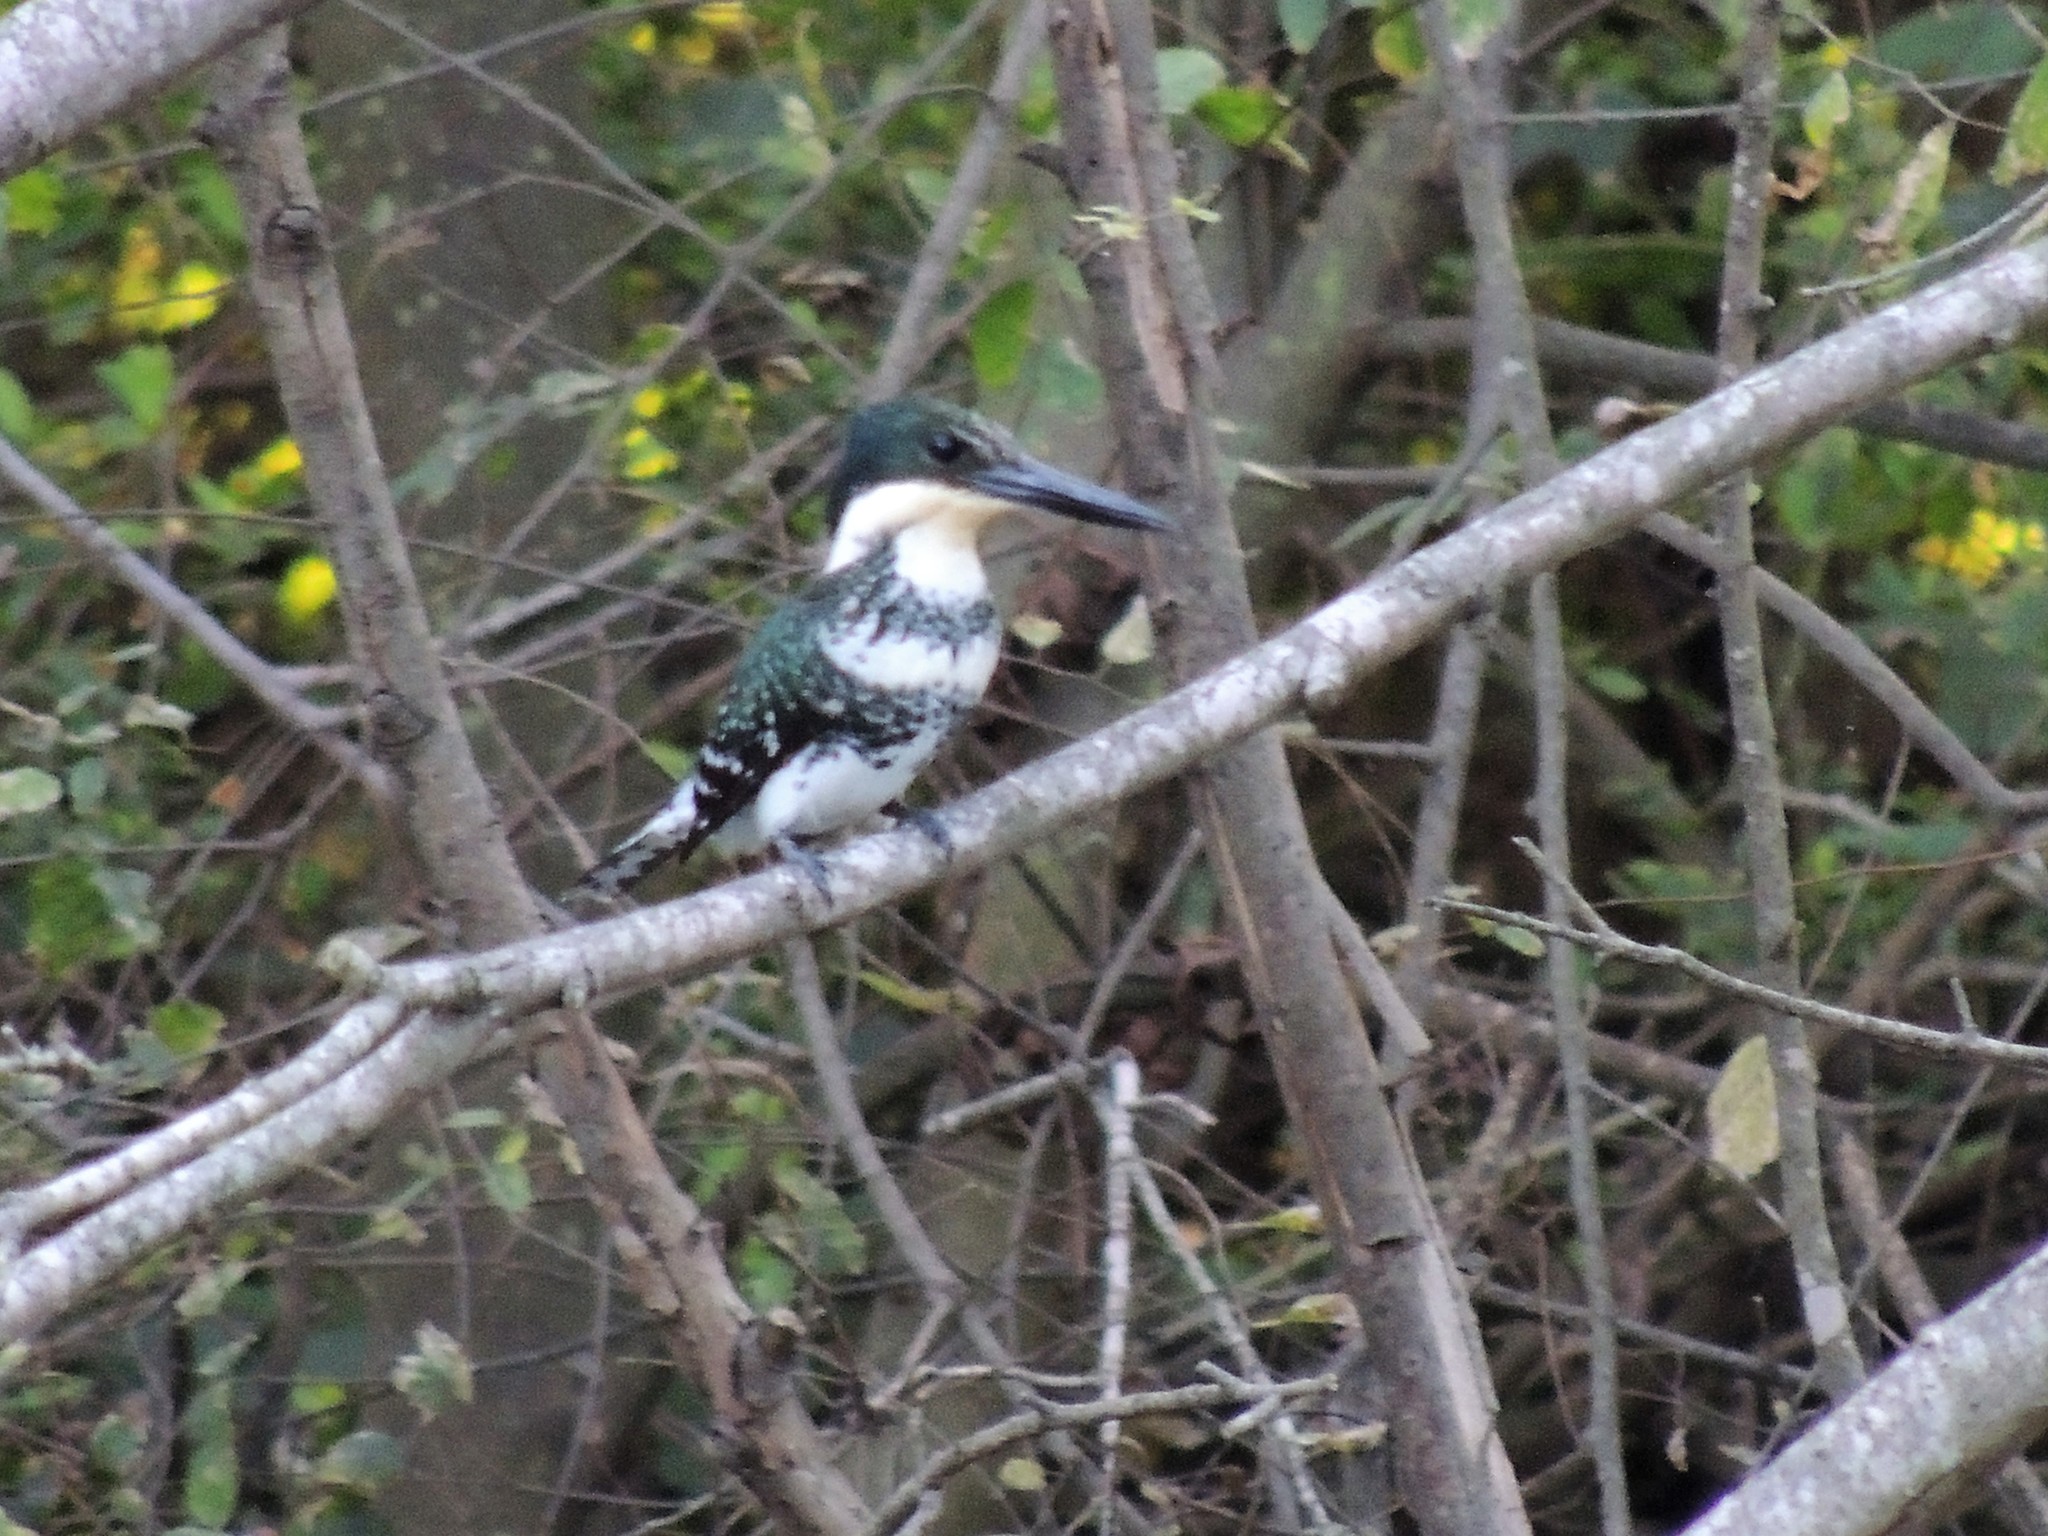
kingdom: Animalia
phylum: Chordata
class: Aves
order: Coraciiformes
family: Alcedinidae
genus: Chloroceryle
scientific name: Chloroceryle americana
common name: Green kingfisher
